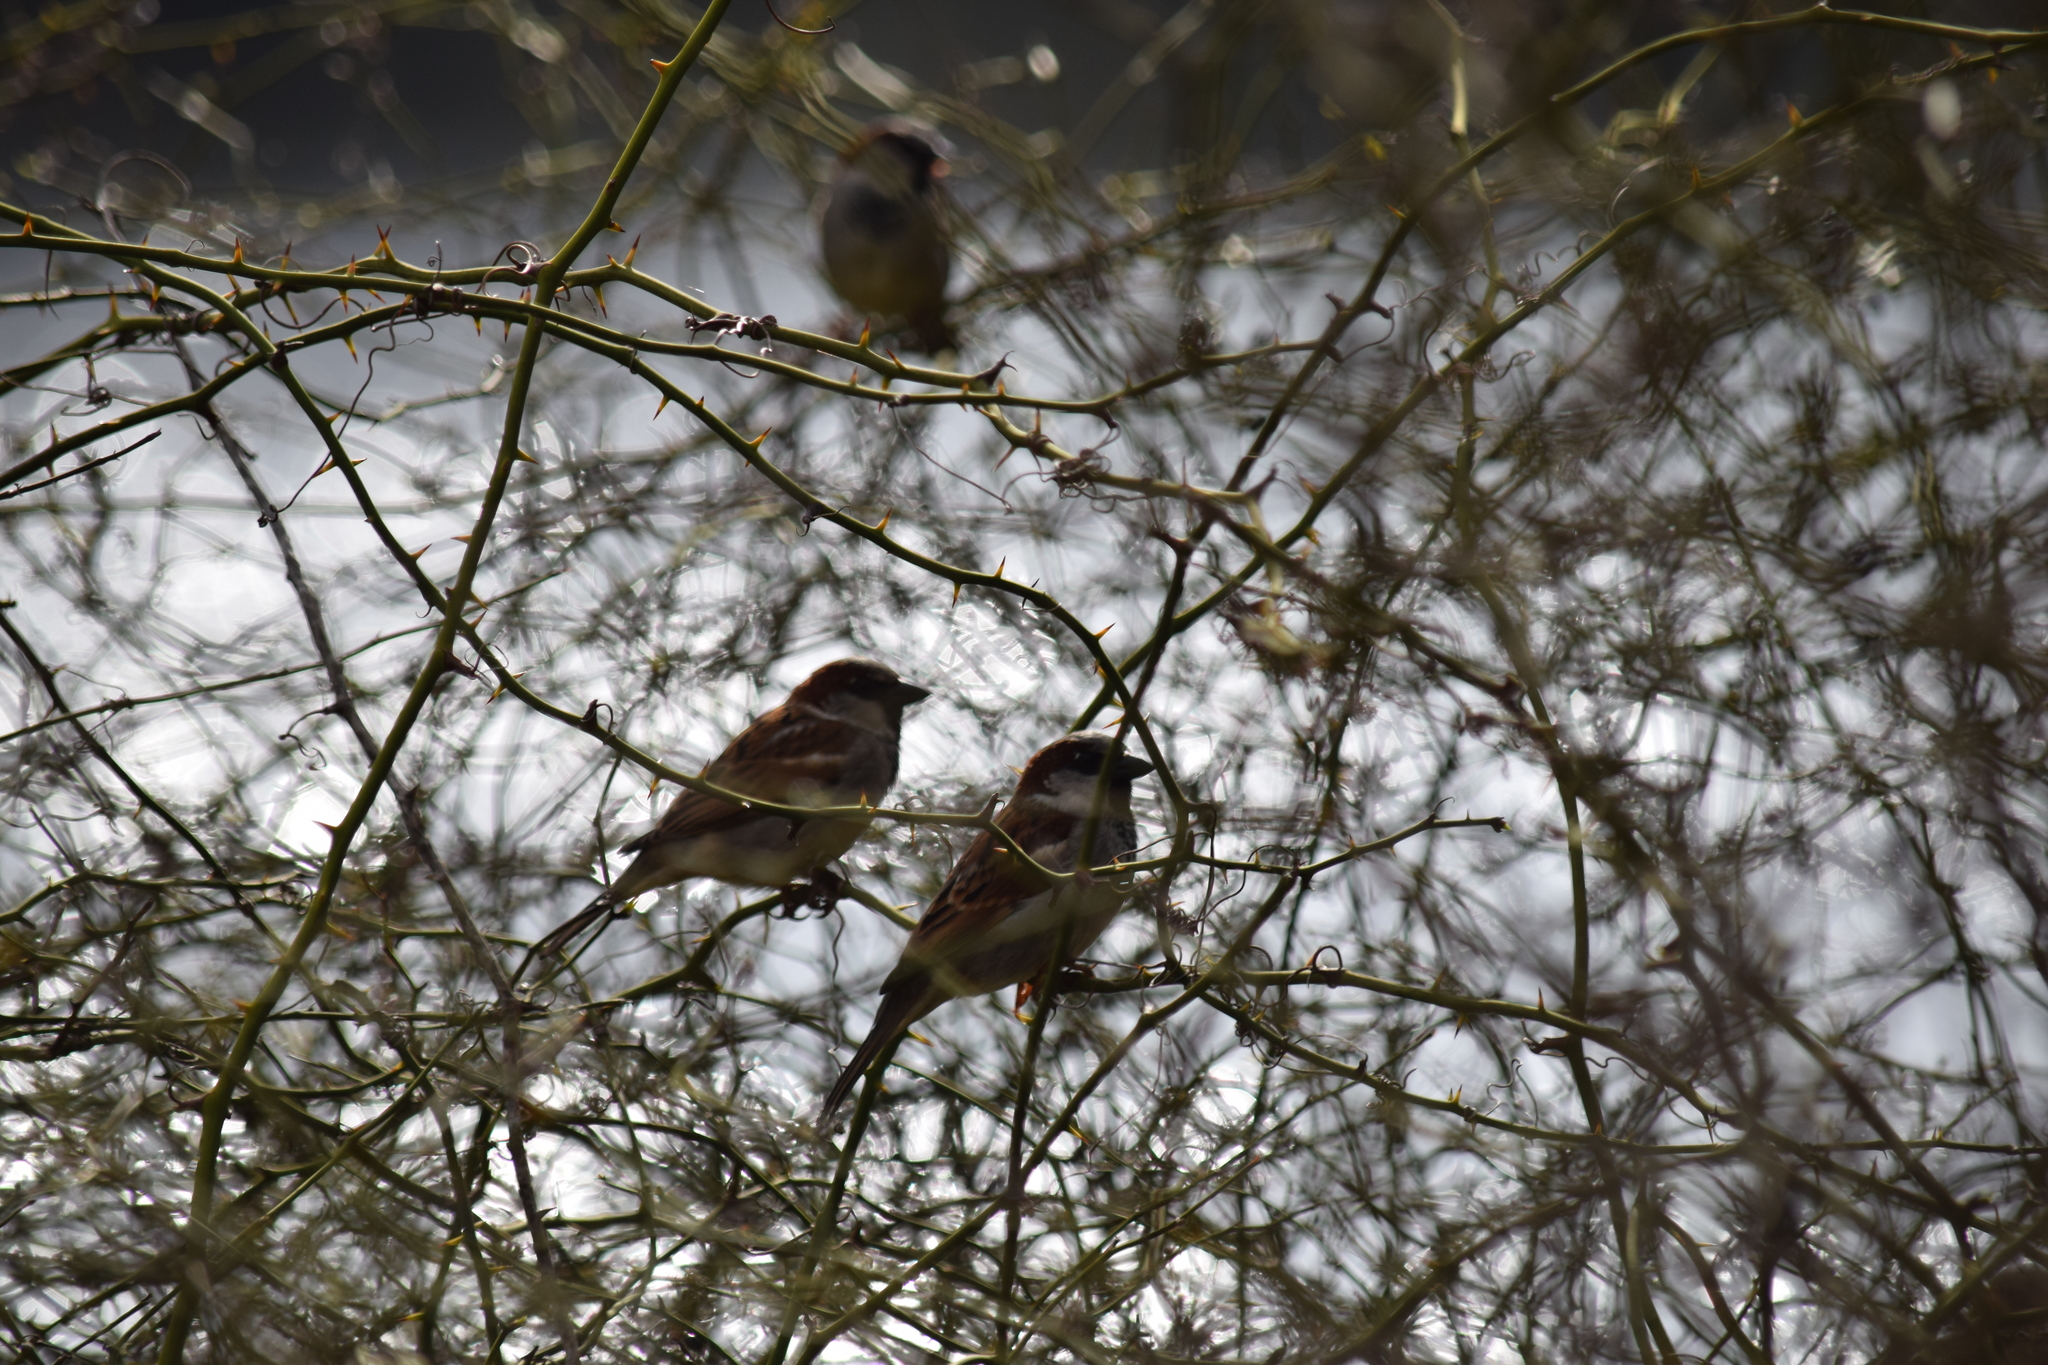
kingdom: Animalia
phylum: Chordata
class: Aves
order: Passeriformes
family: Passeridae
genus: Passer
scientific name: Passer domesticus
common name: House sparrow
